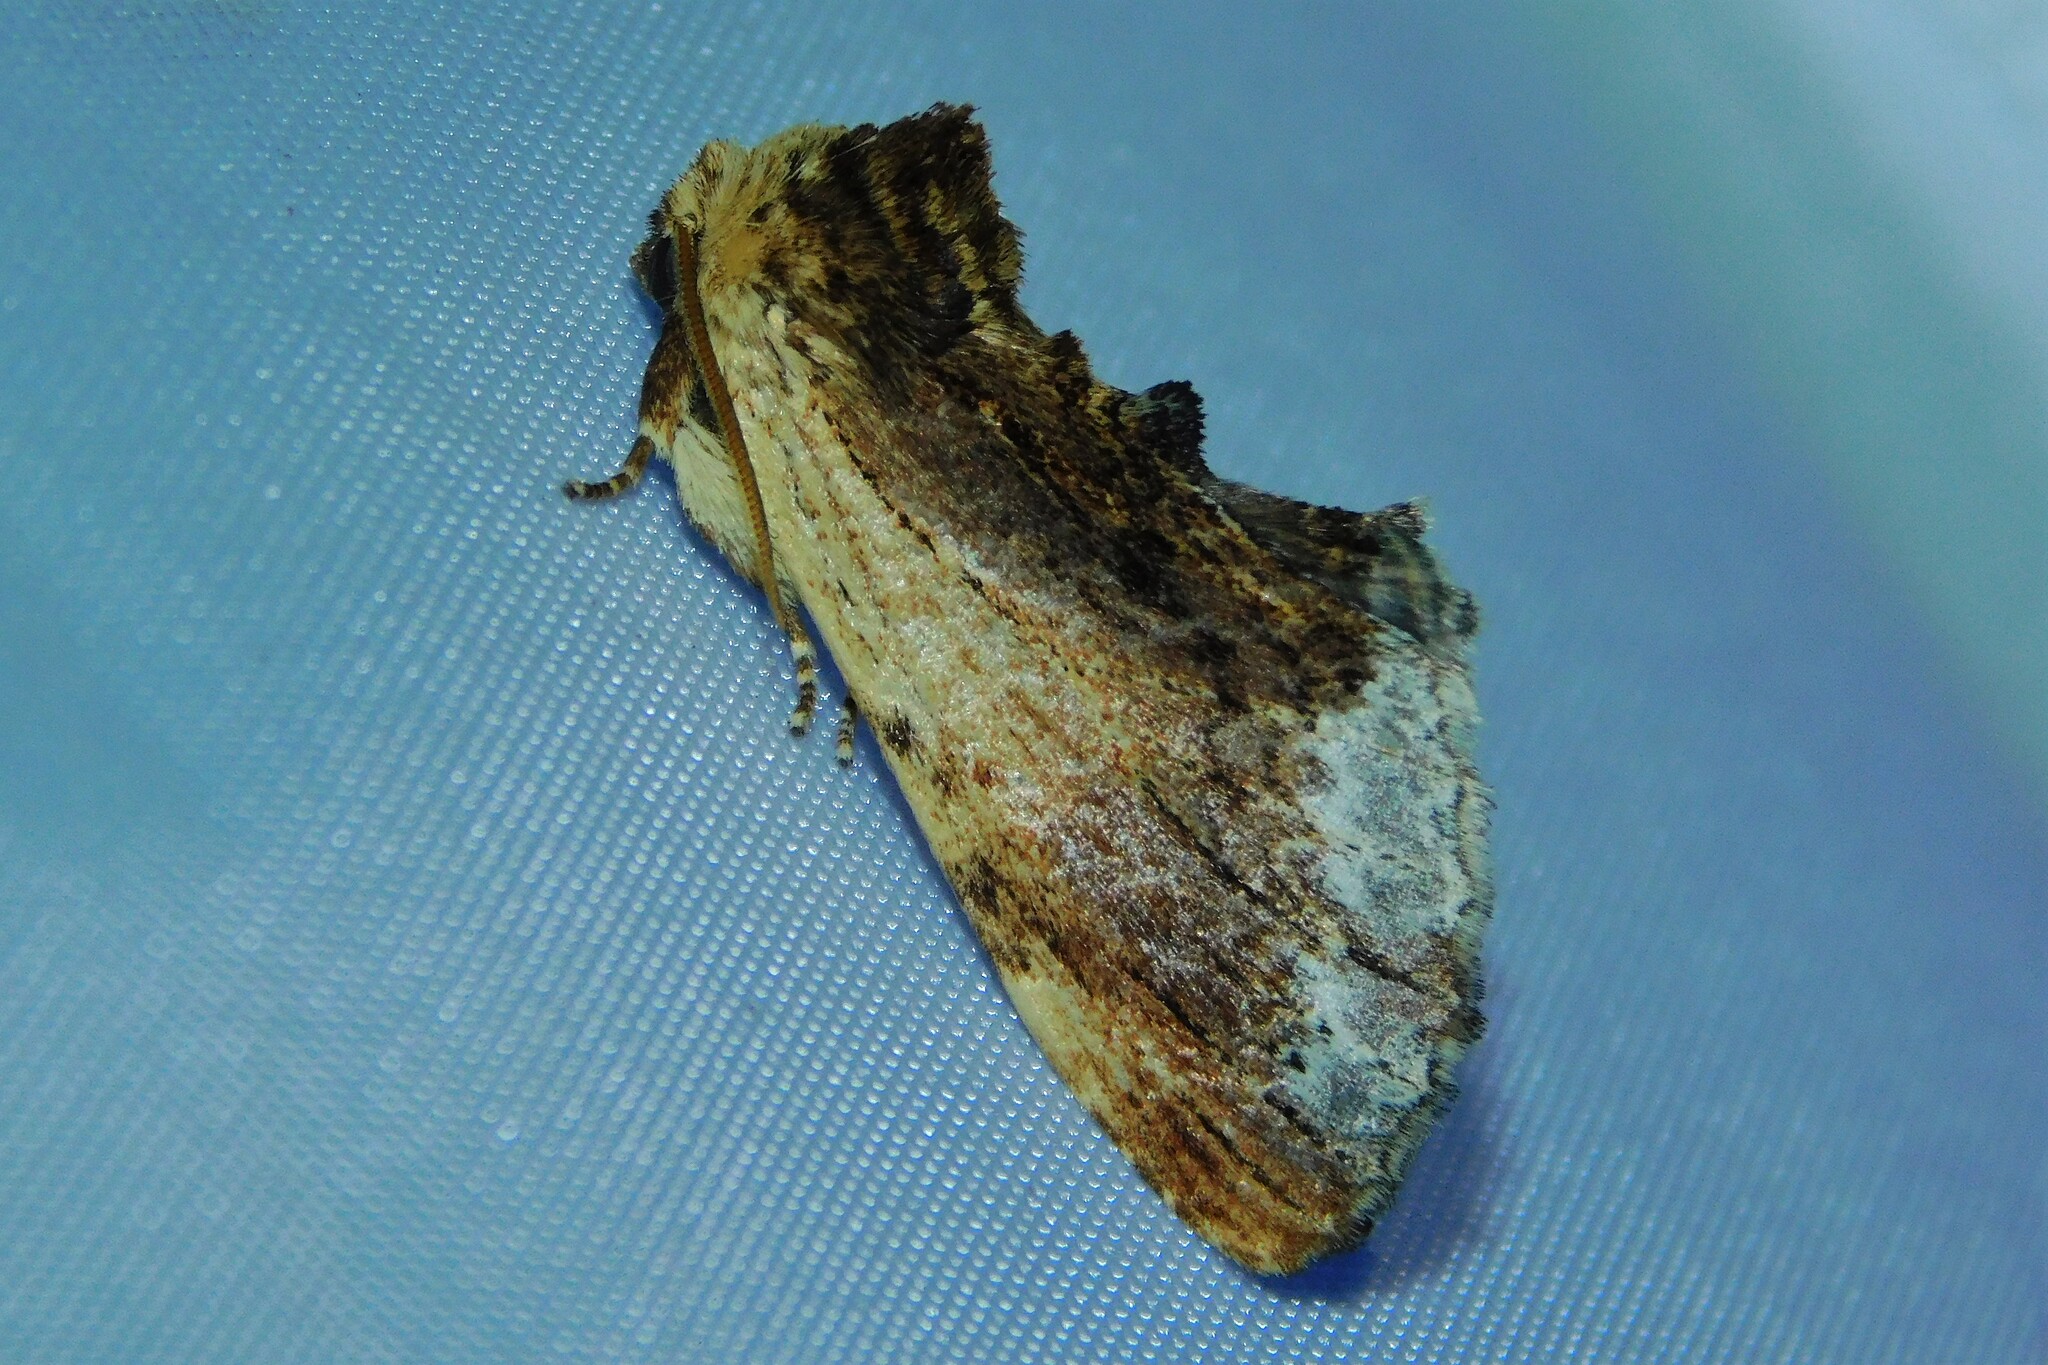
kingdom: Animalia
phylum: Arthropoda
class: Insecta
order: Lepidoptera
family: Notodontidae
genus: Ptilodon
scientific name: Ptilodon cucullina
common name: Maple prominent
